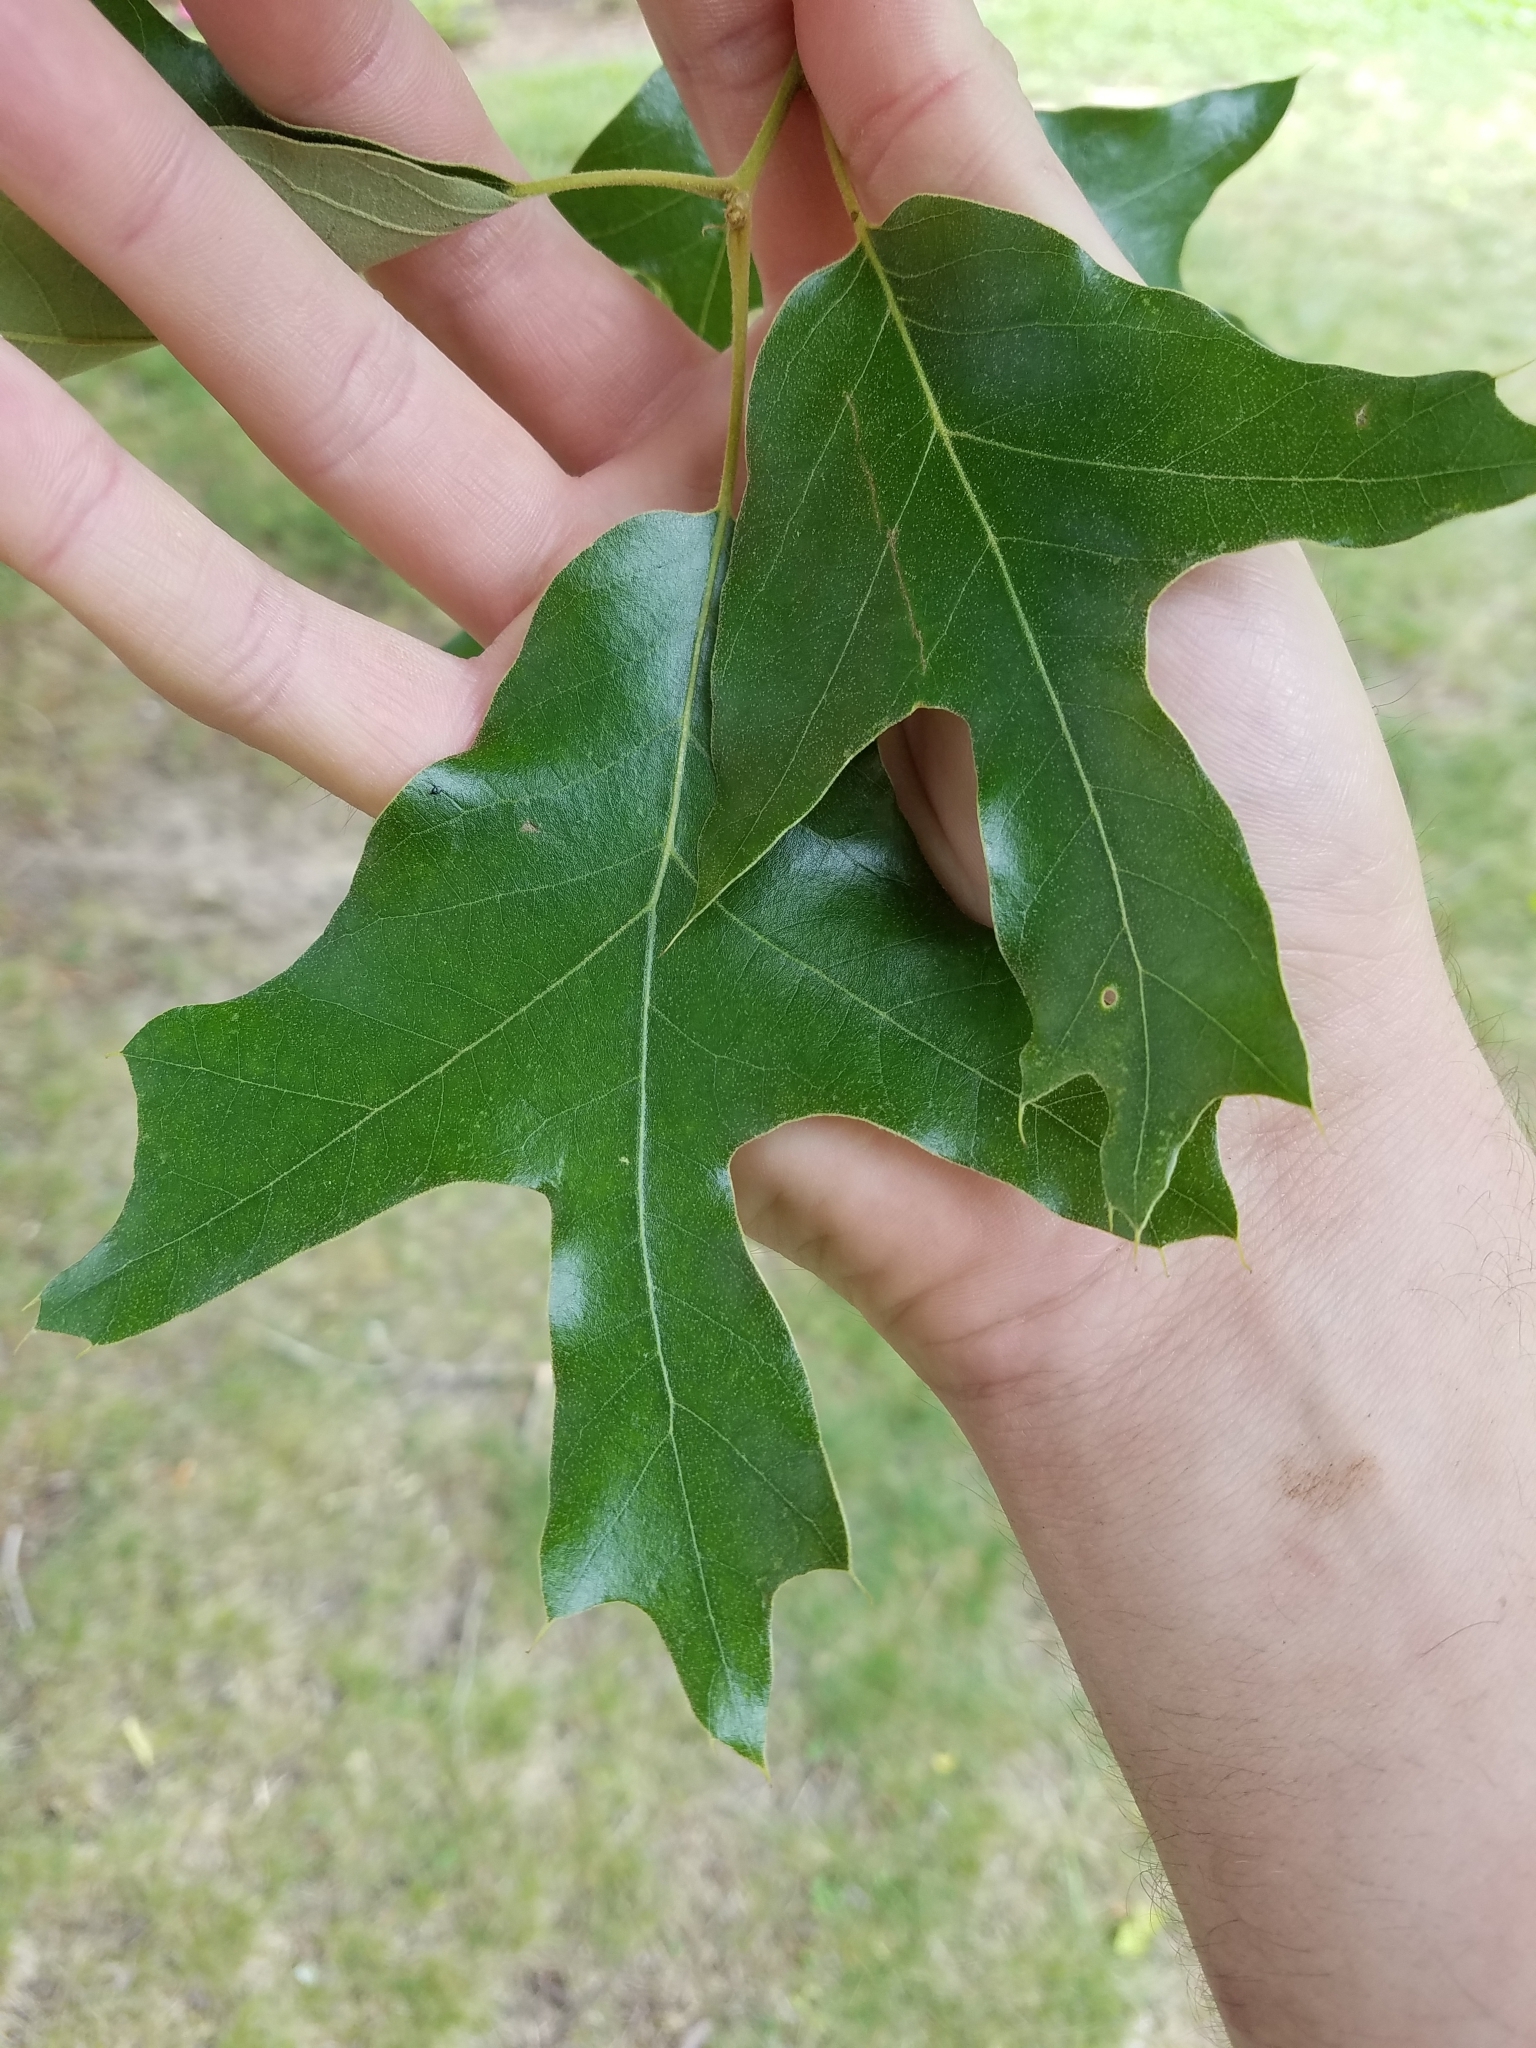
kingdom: Plantae
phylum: Tracheophyta
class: Magnoliopsida
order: Fagales
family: Fagaceae
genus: Quercus
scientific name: Quercus falcata
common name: Southern red oak
